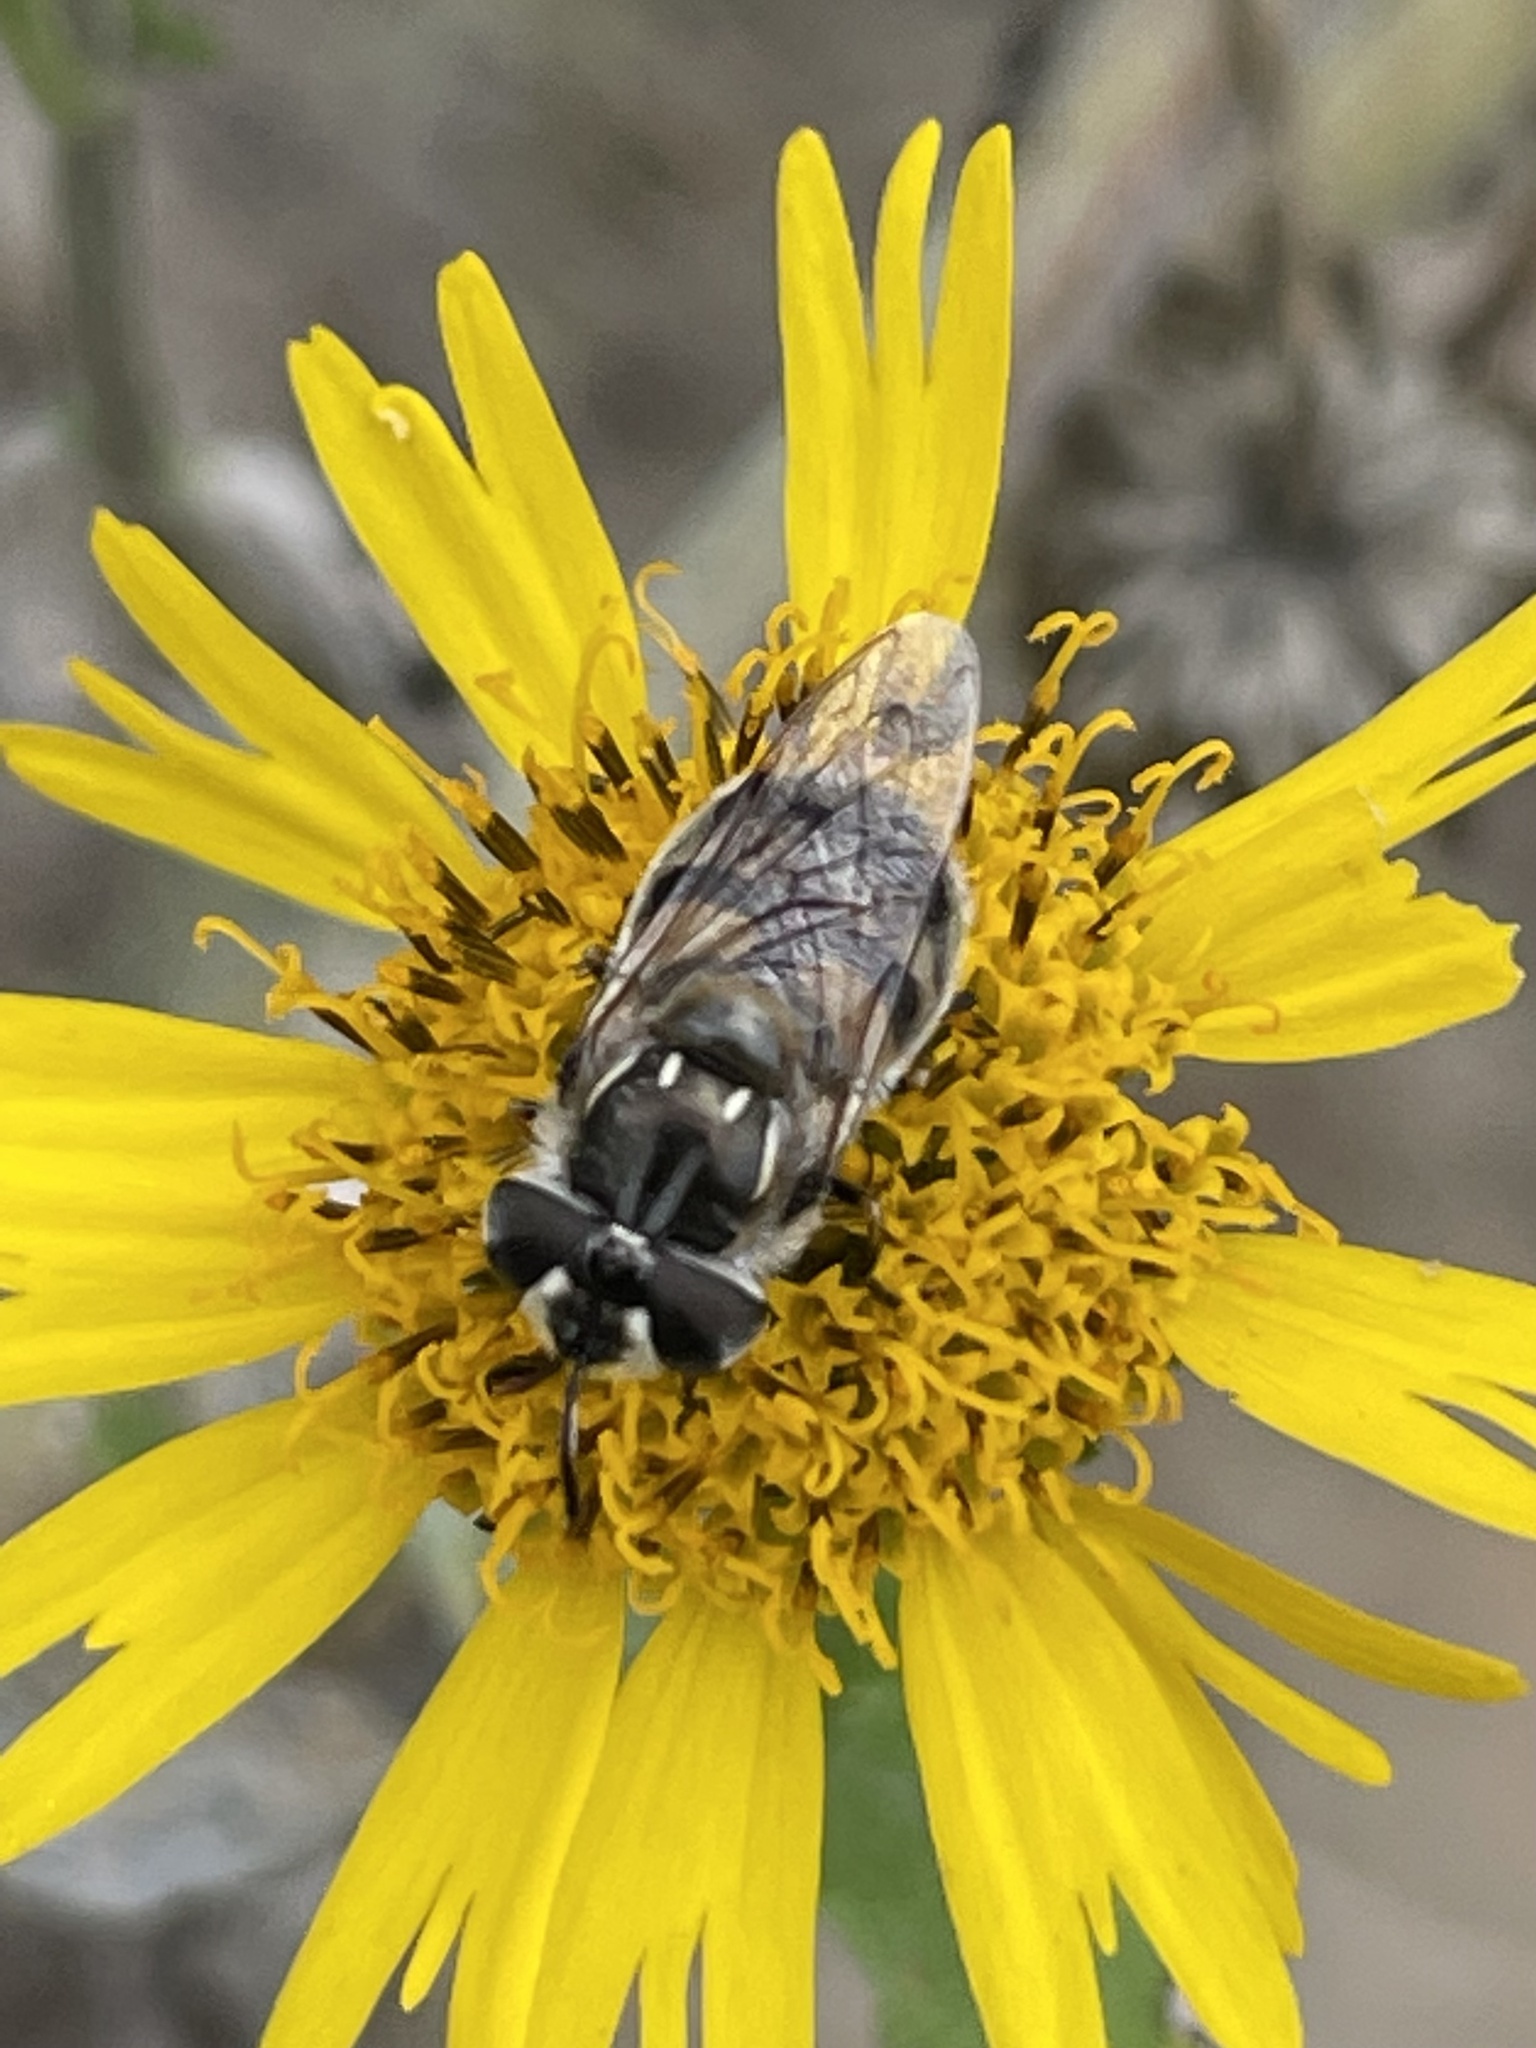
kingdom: Animalia
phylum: Arthropoda
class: Insecta
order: Diptera
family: Syrphidae
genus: Copestylum
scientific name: Copestylum marginatum
